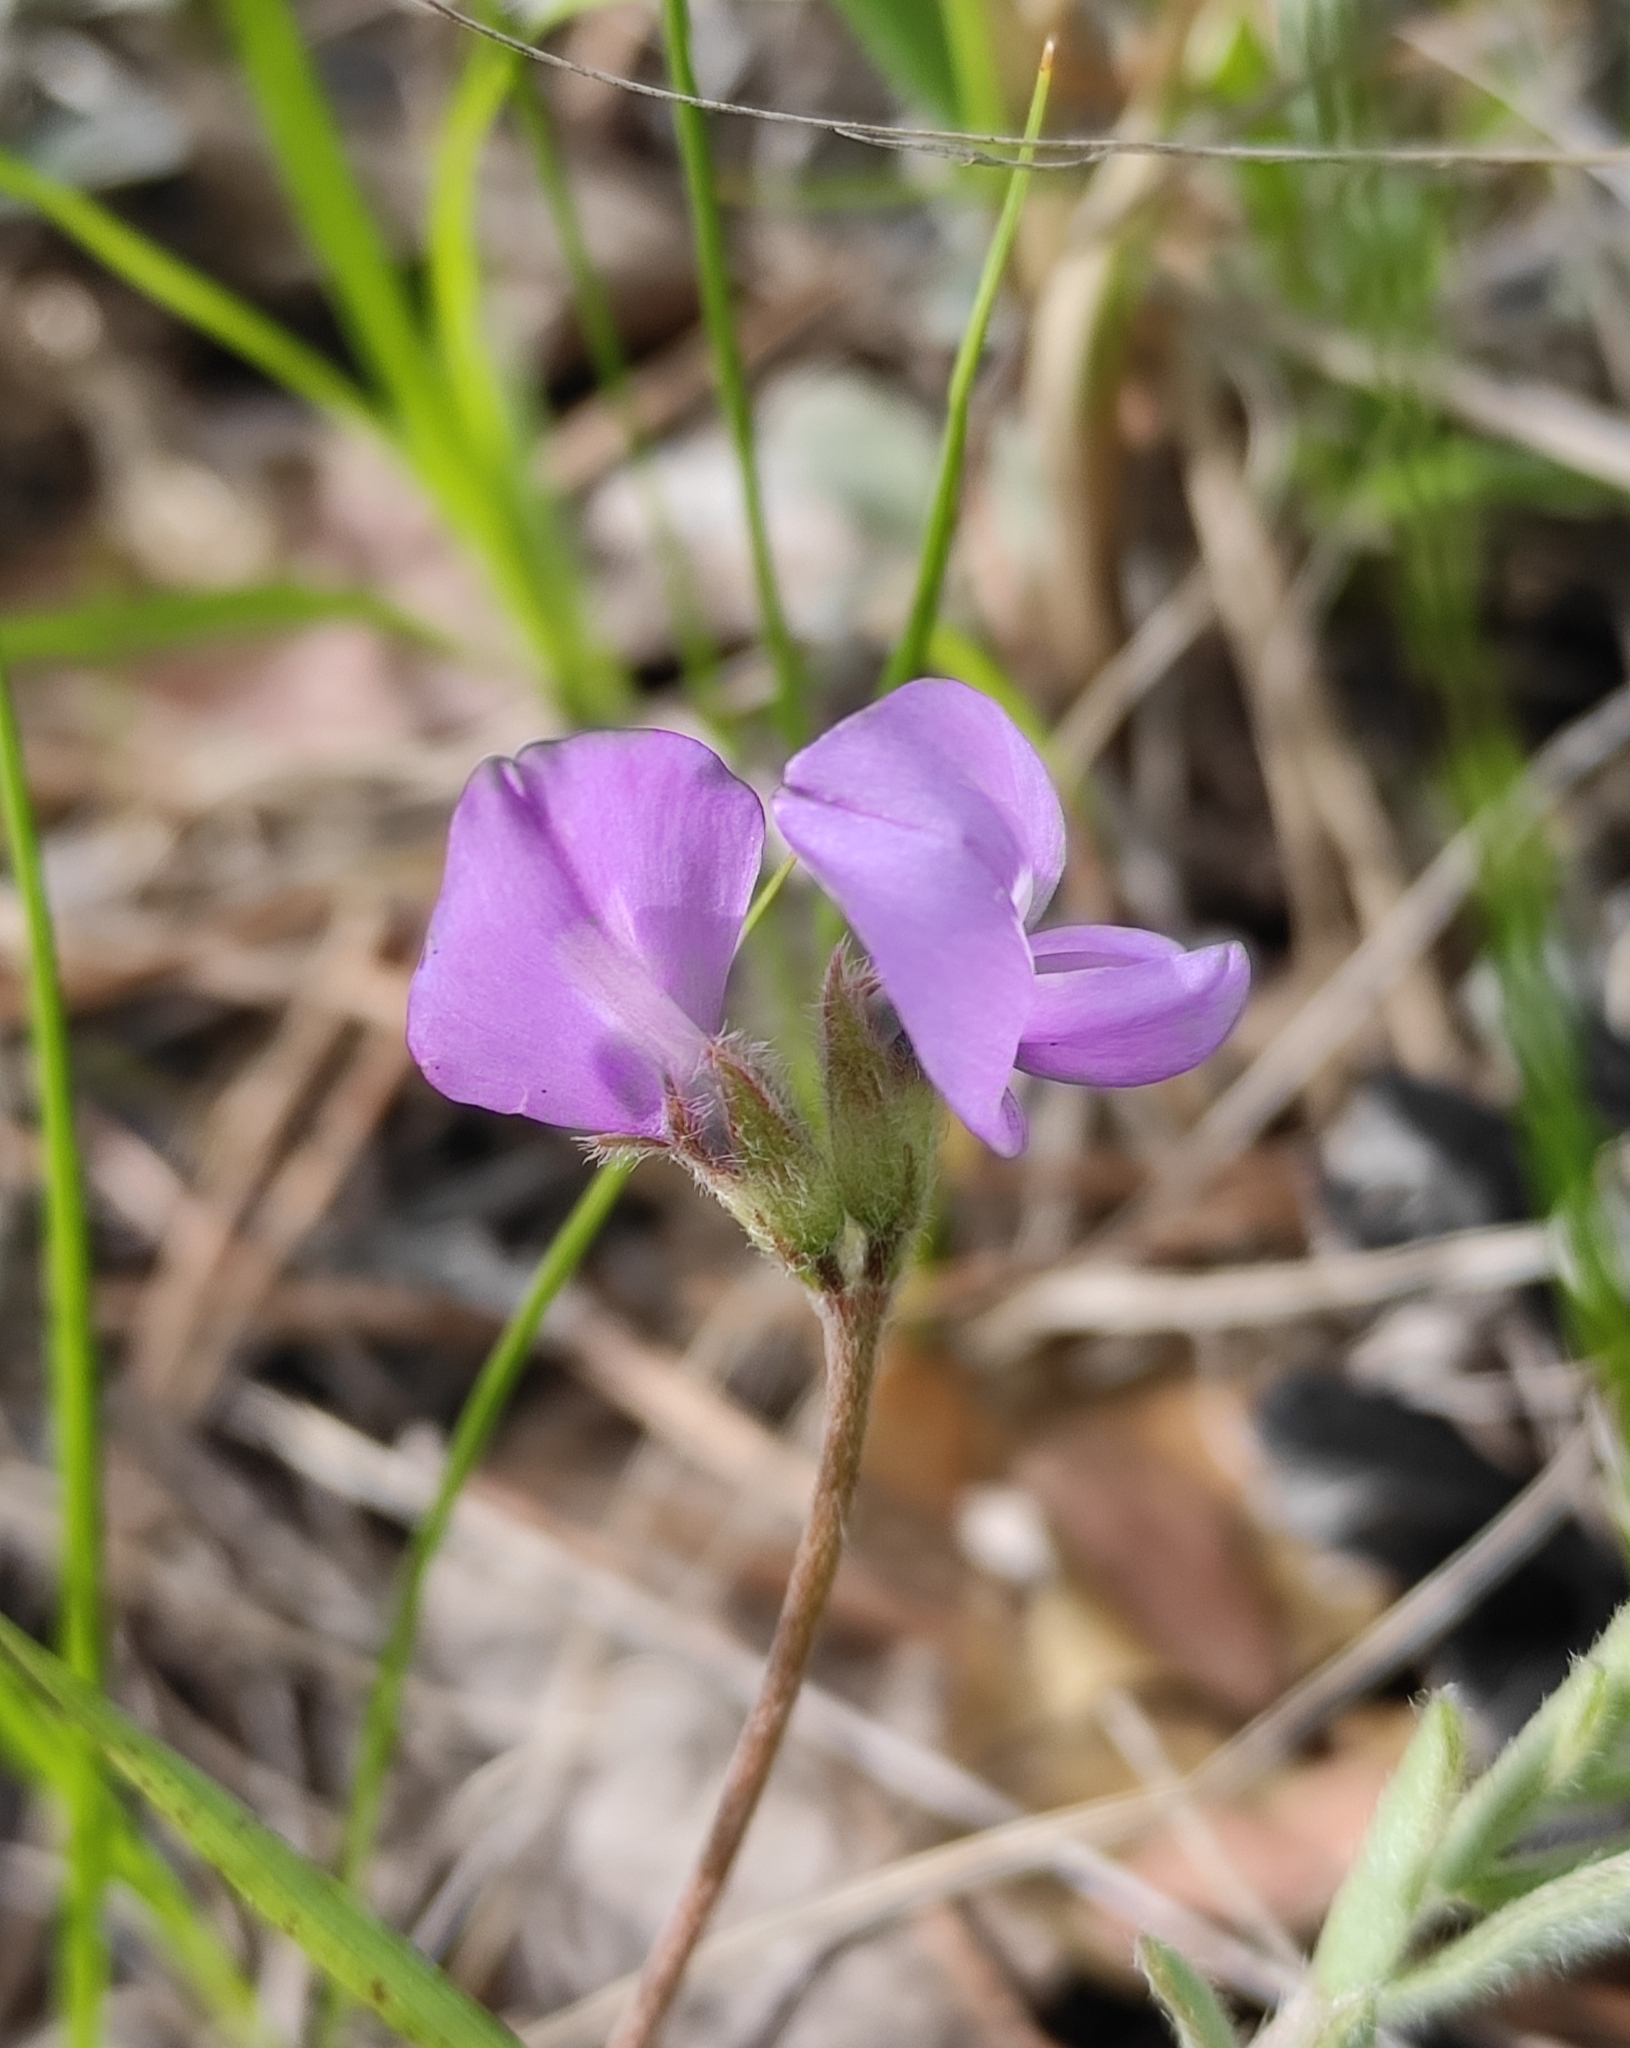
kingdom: Plantae
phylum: Tracheophyta
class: Magnoliopsida
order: Fabales
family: Fabaceae
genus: Gueldenstaedtia
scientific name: Gueldenstaedtia verna
